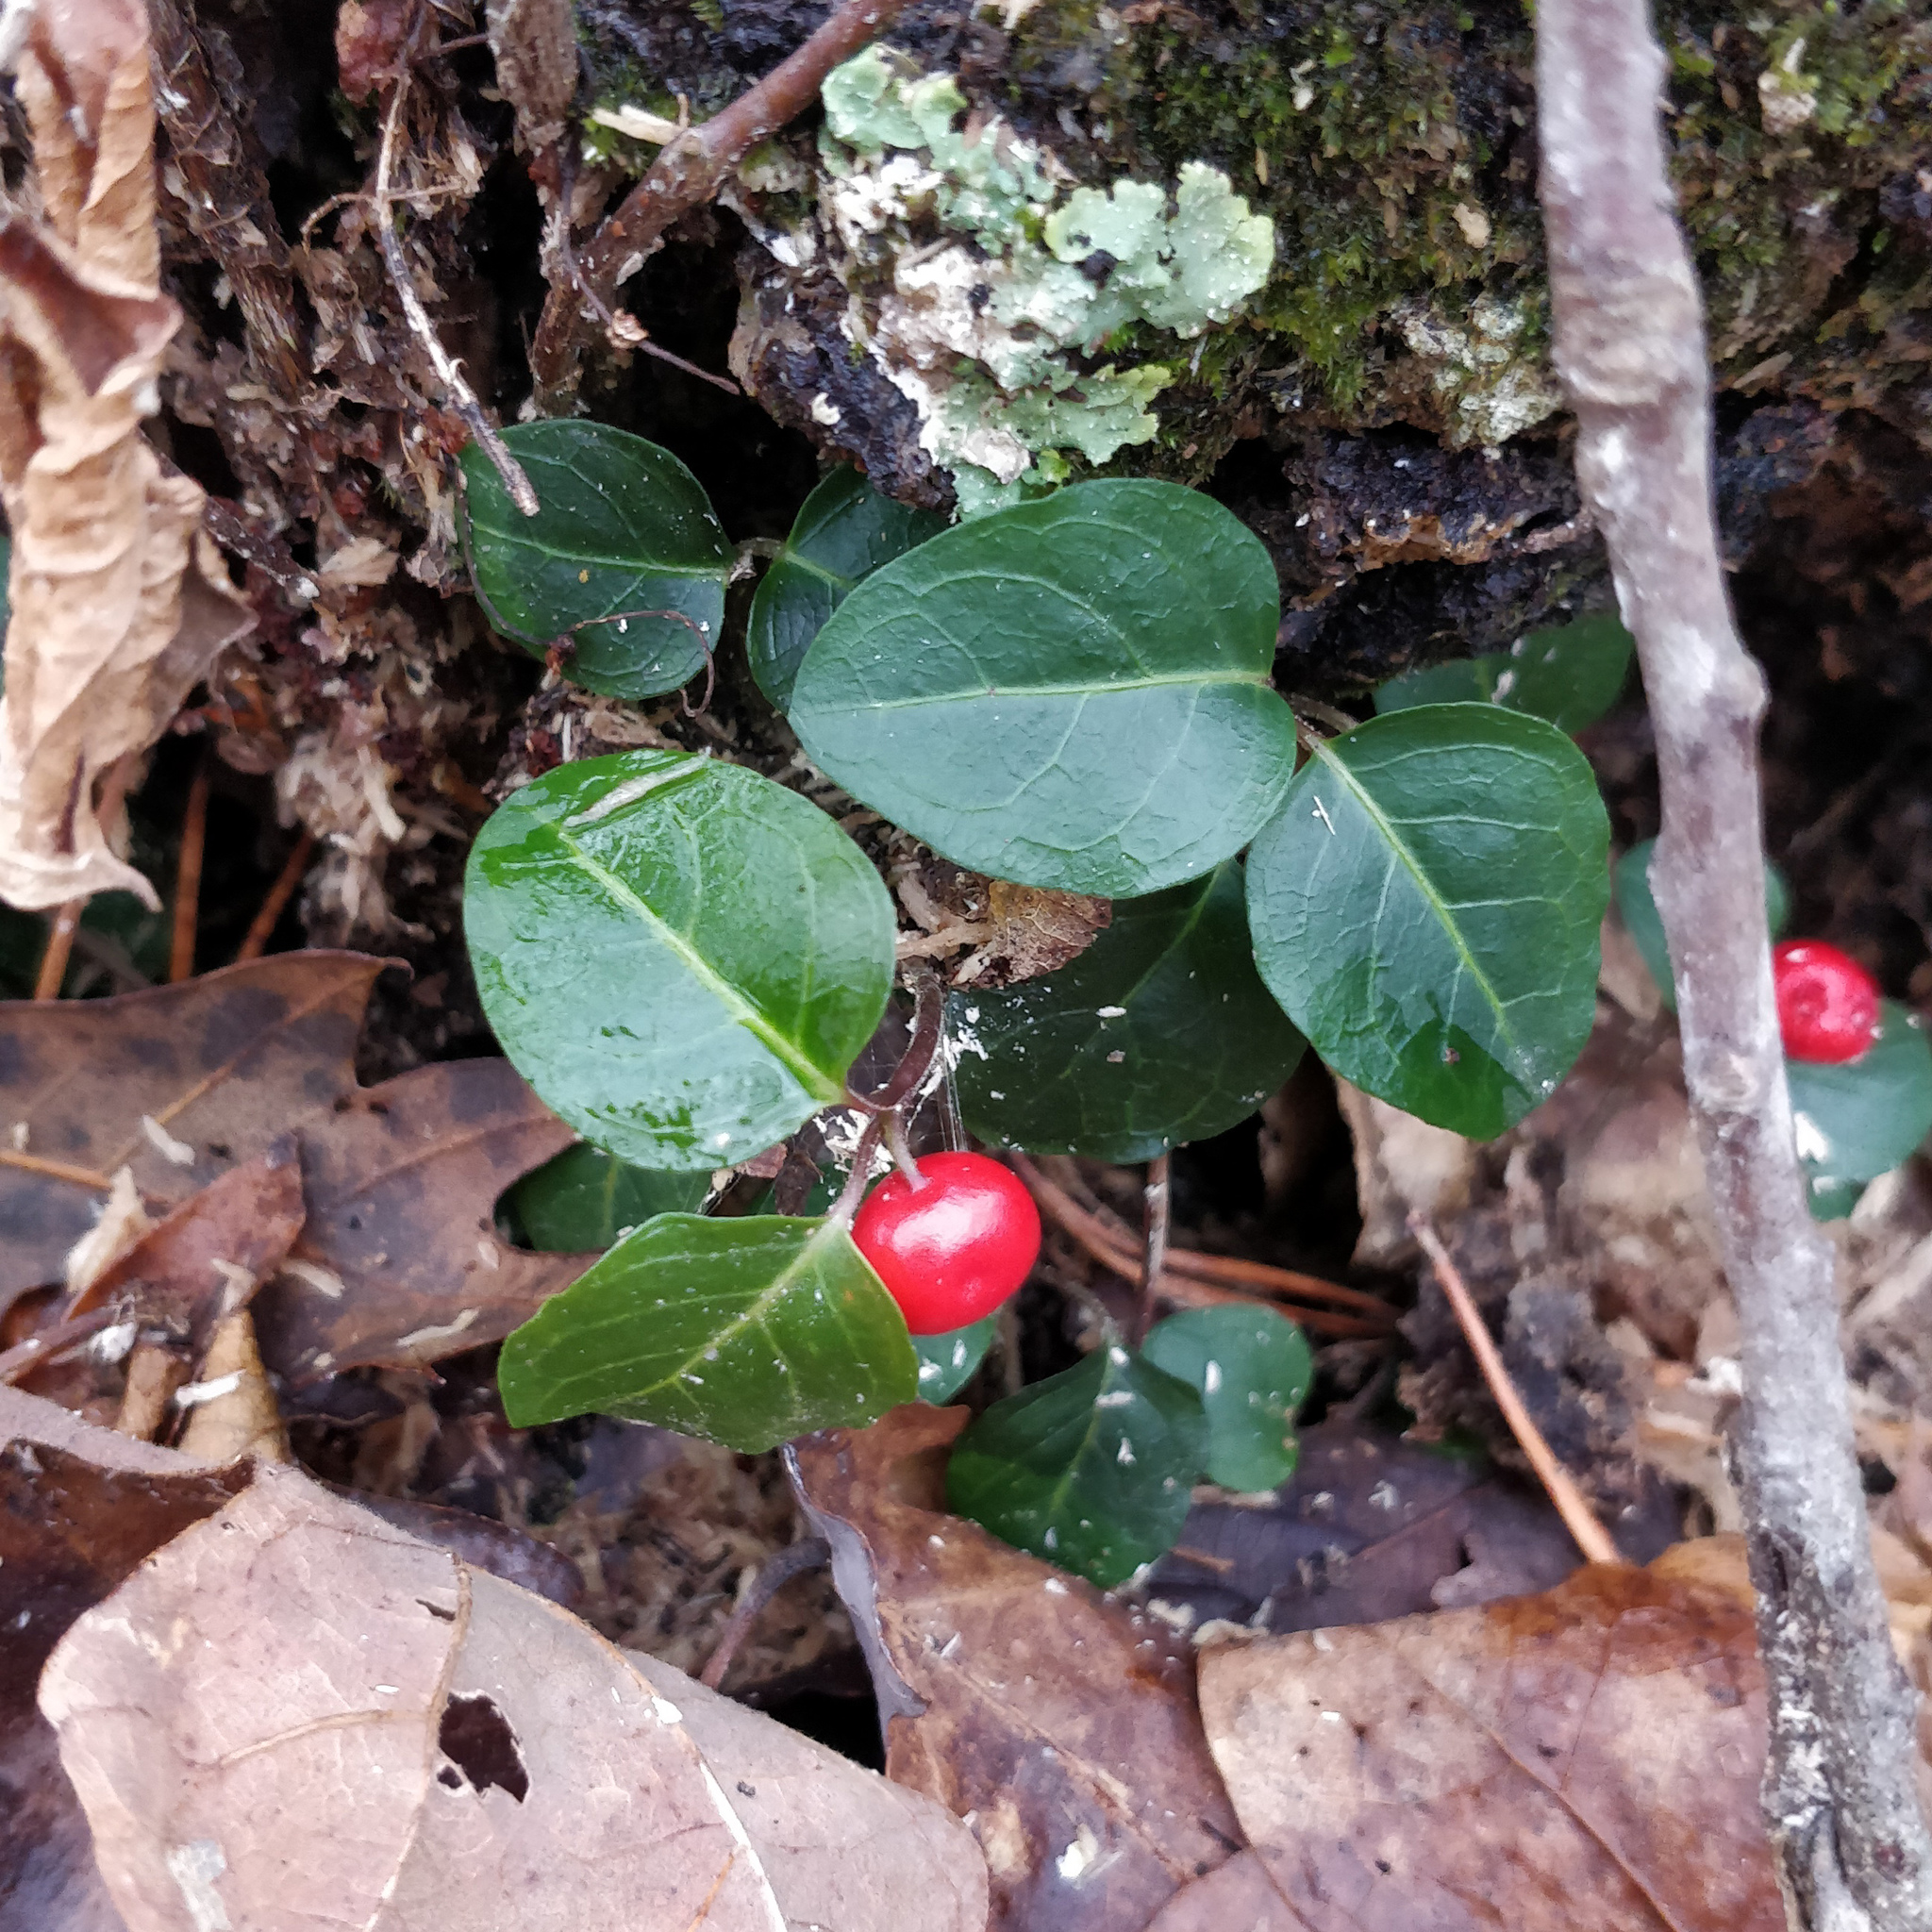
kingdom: Plantae
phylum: Tracheophyta
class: Magnoliopsida
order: Gentianales
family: Rubiaceae
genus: Mitchella
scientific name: Mitchella repens
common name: Partridge-berry
